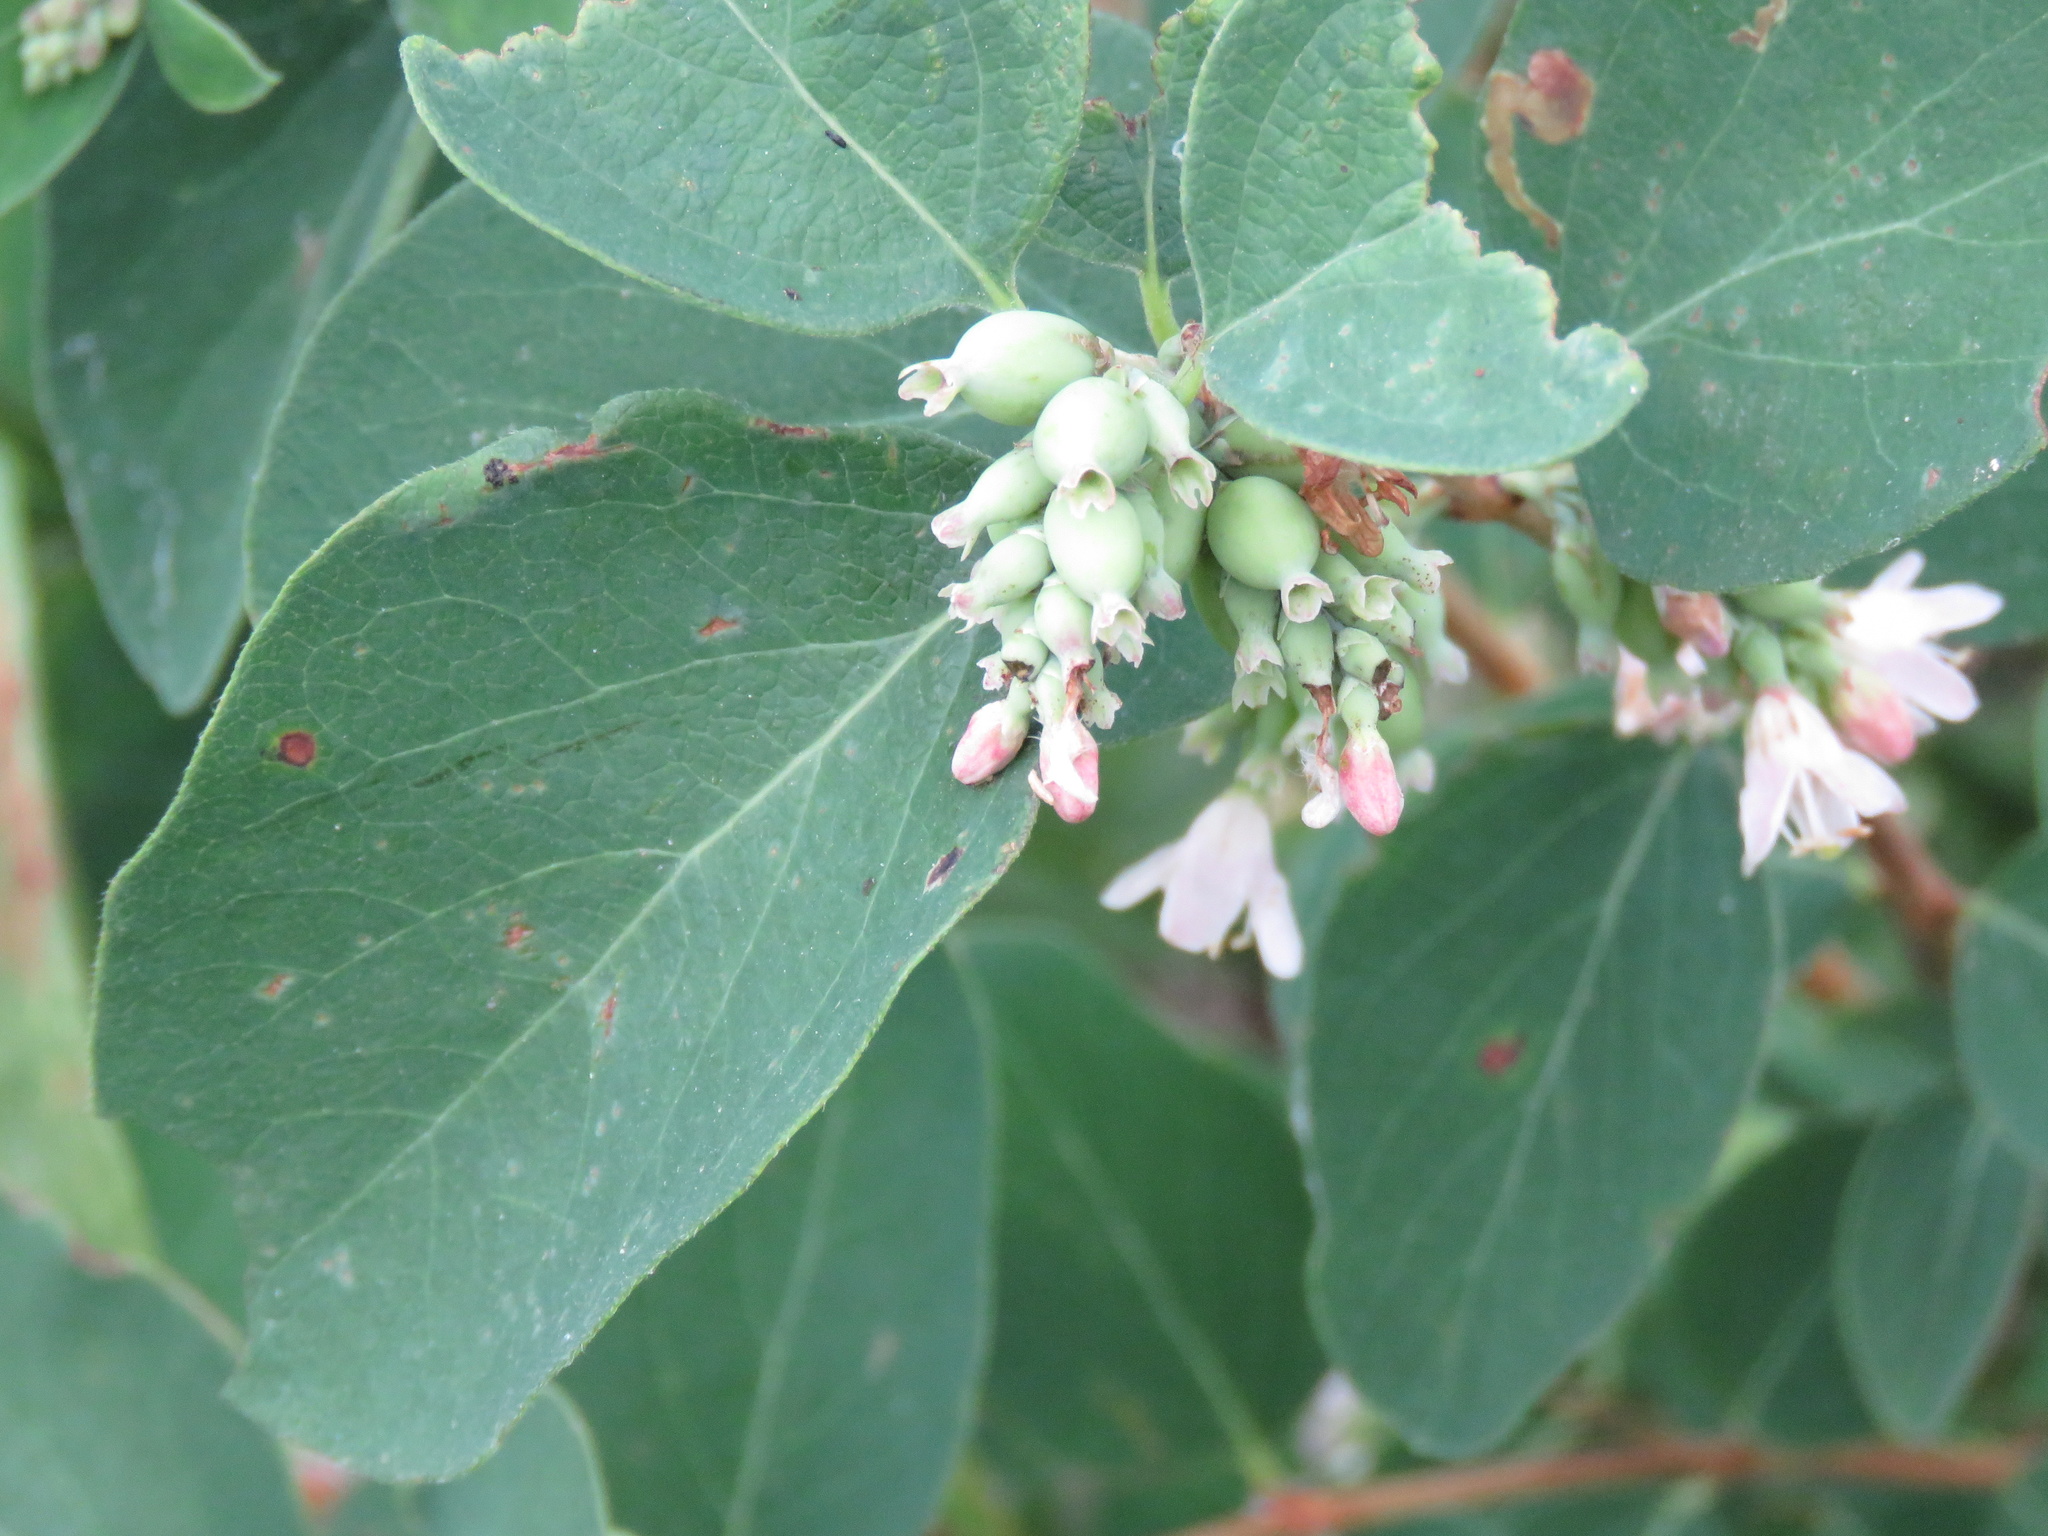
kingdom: Plantae
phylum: Tracheophyta
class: Magnoliopsida
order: Dipsacales
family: Caprifoliaceae
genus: Symphoricarpos
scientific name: Symphoricarpos occidentalis
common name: Wolfberry
